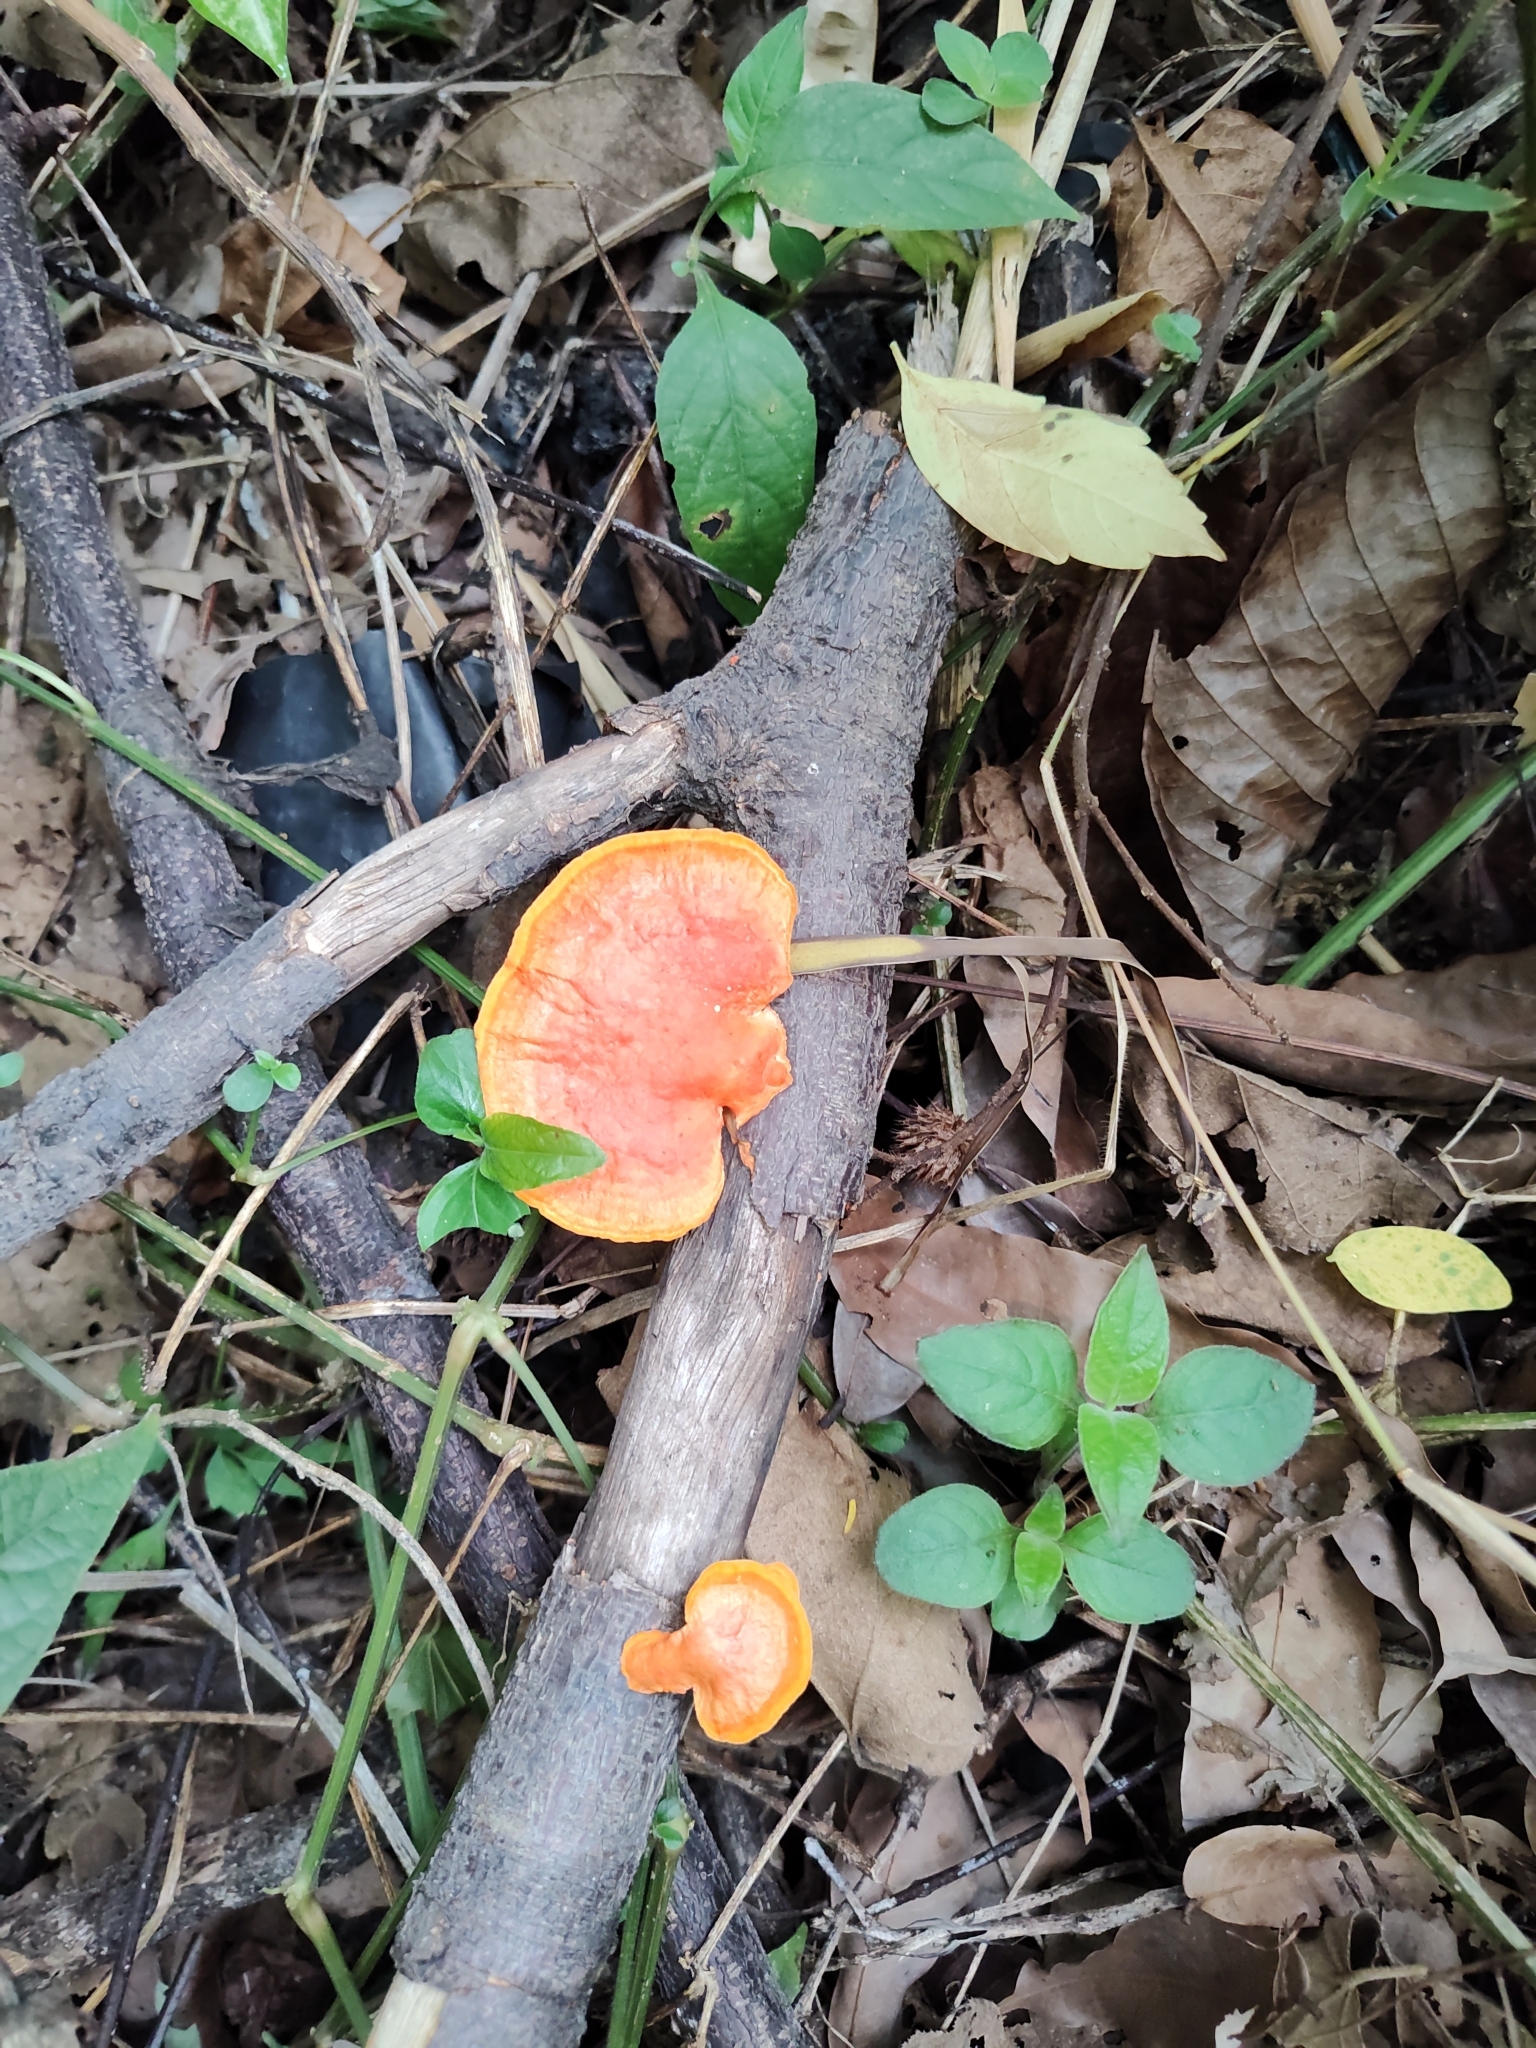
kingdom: Fungi
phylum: Basidiomycota
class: Agaricomycetes
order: Polyporales
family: Polyporaceae
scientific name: Polyporaceae
